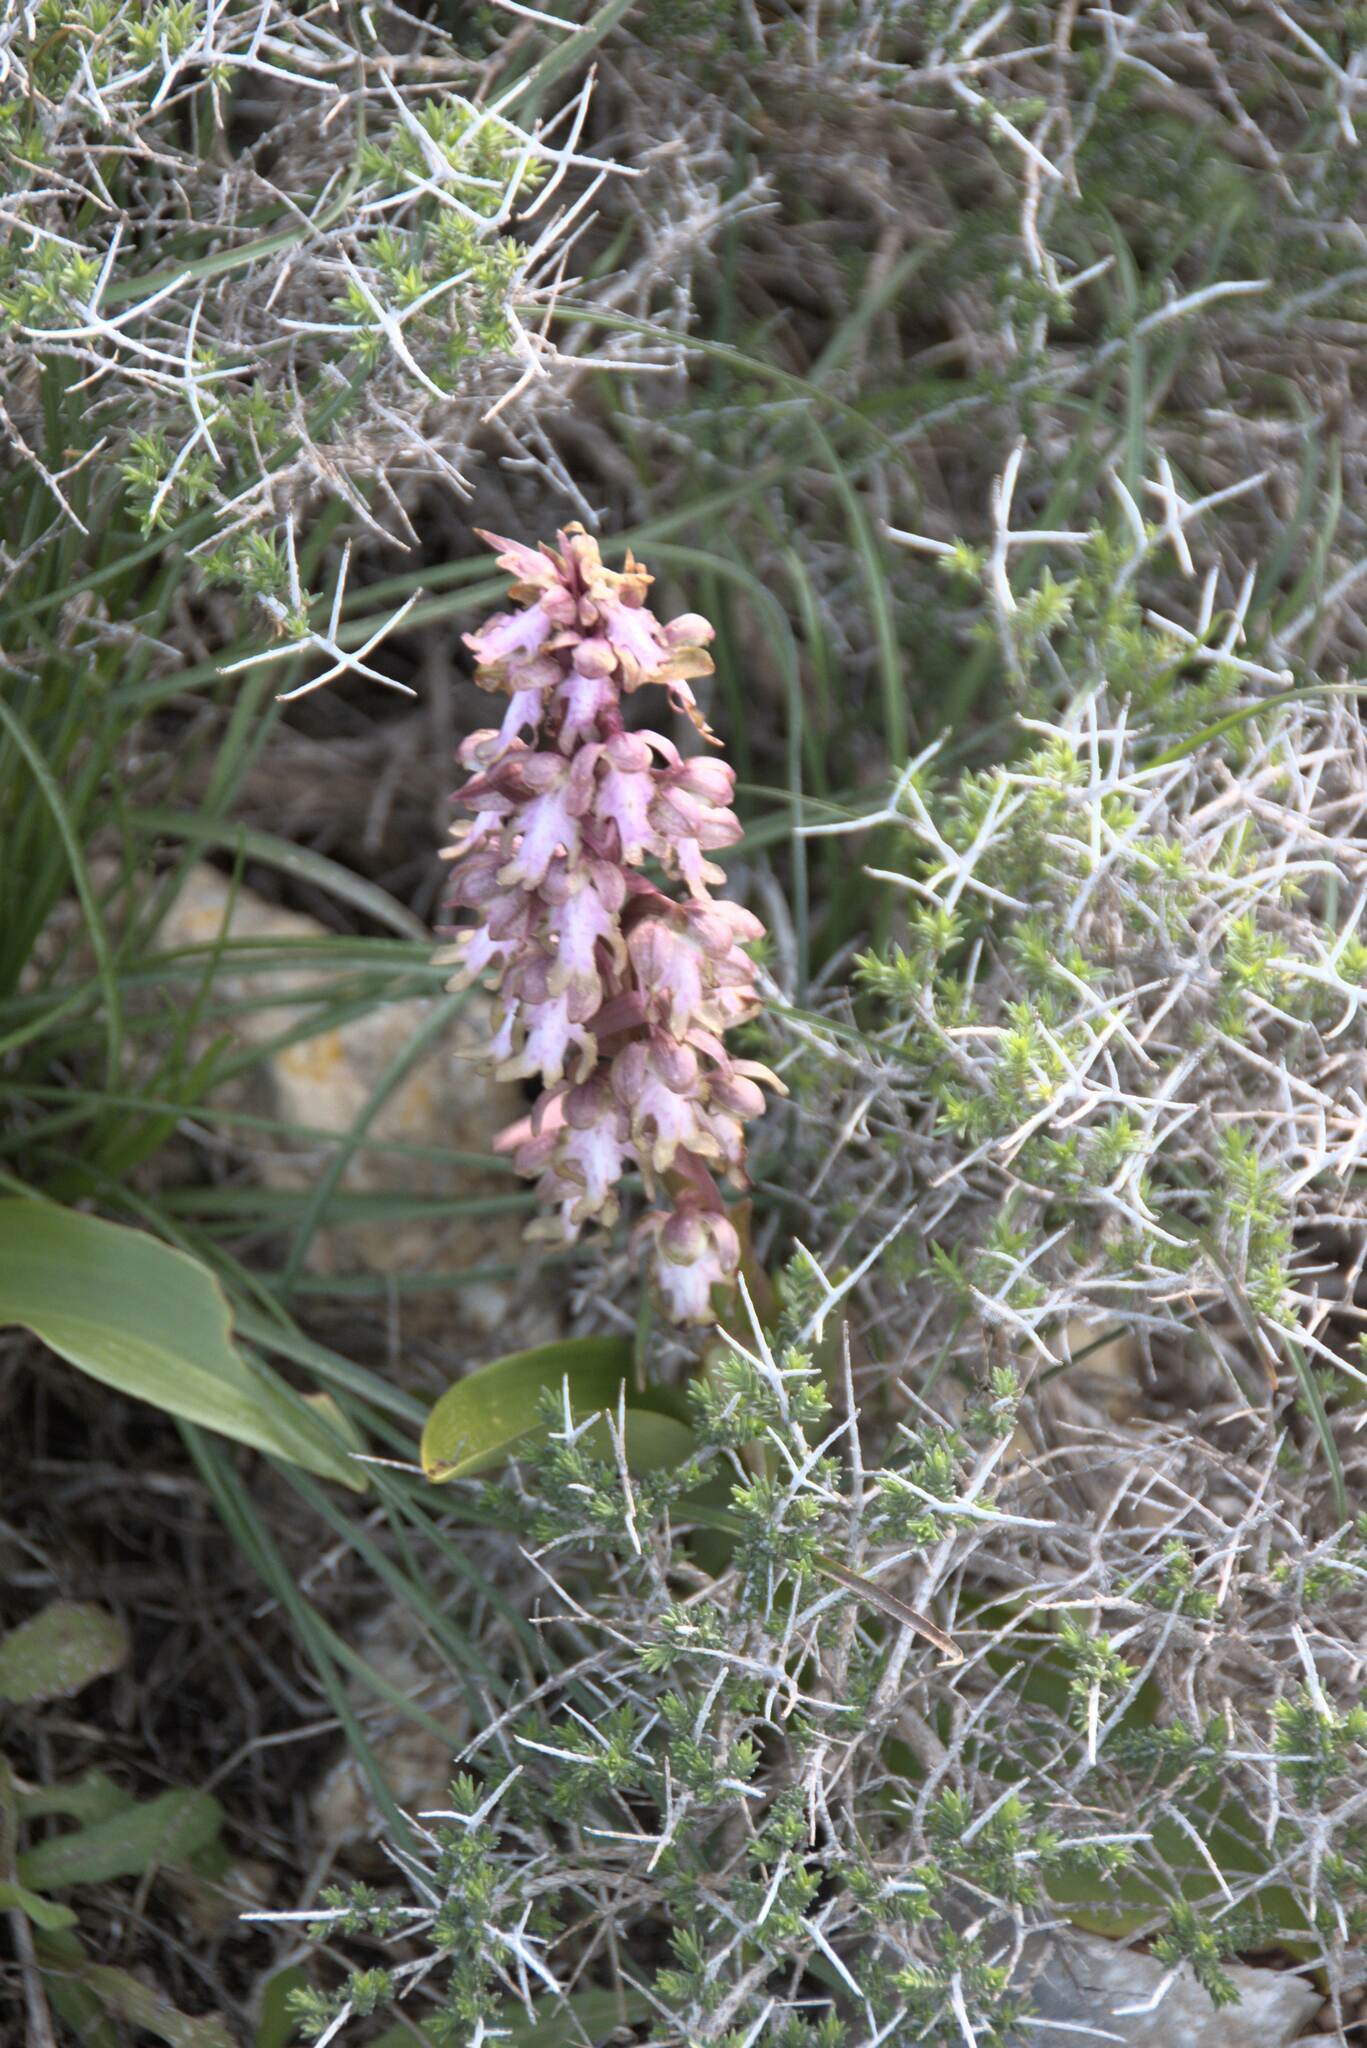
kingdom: Plantae
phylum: Tracheophyta
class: Liliopsida
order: Asparagales
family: Orchidaceae
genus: Himantoglossum
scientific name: Himantoglossum robertianum
